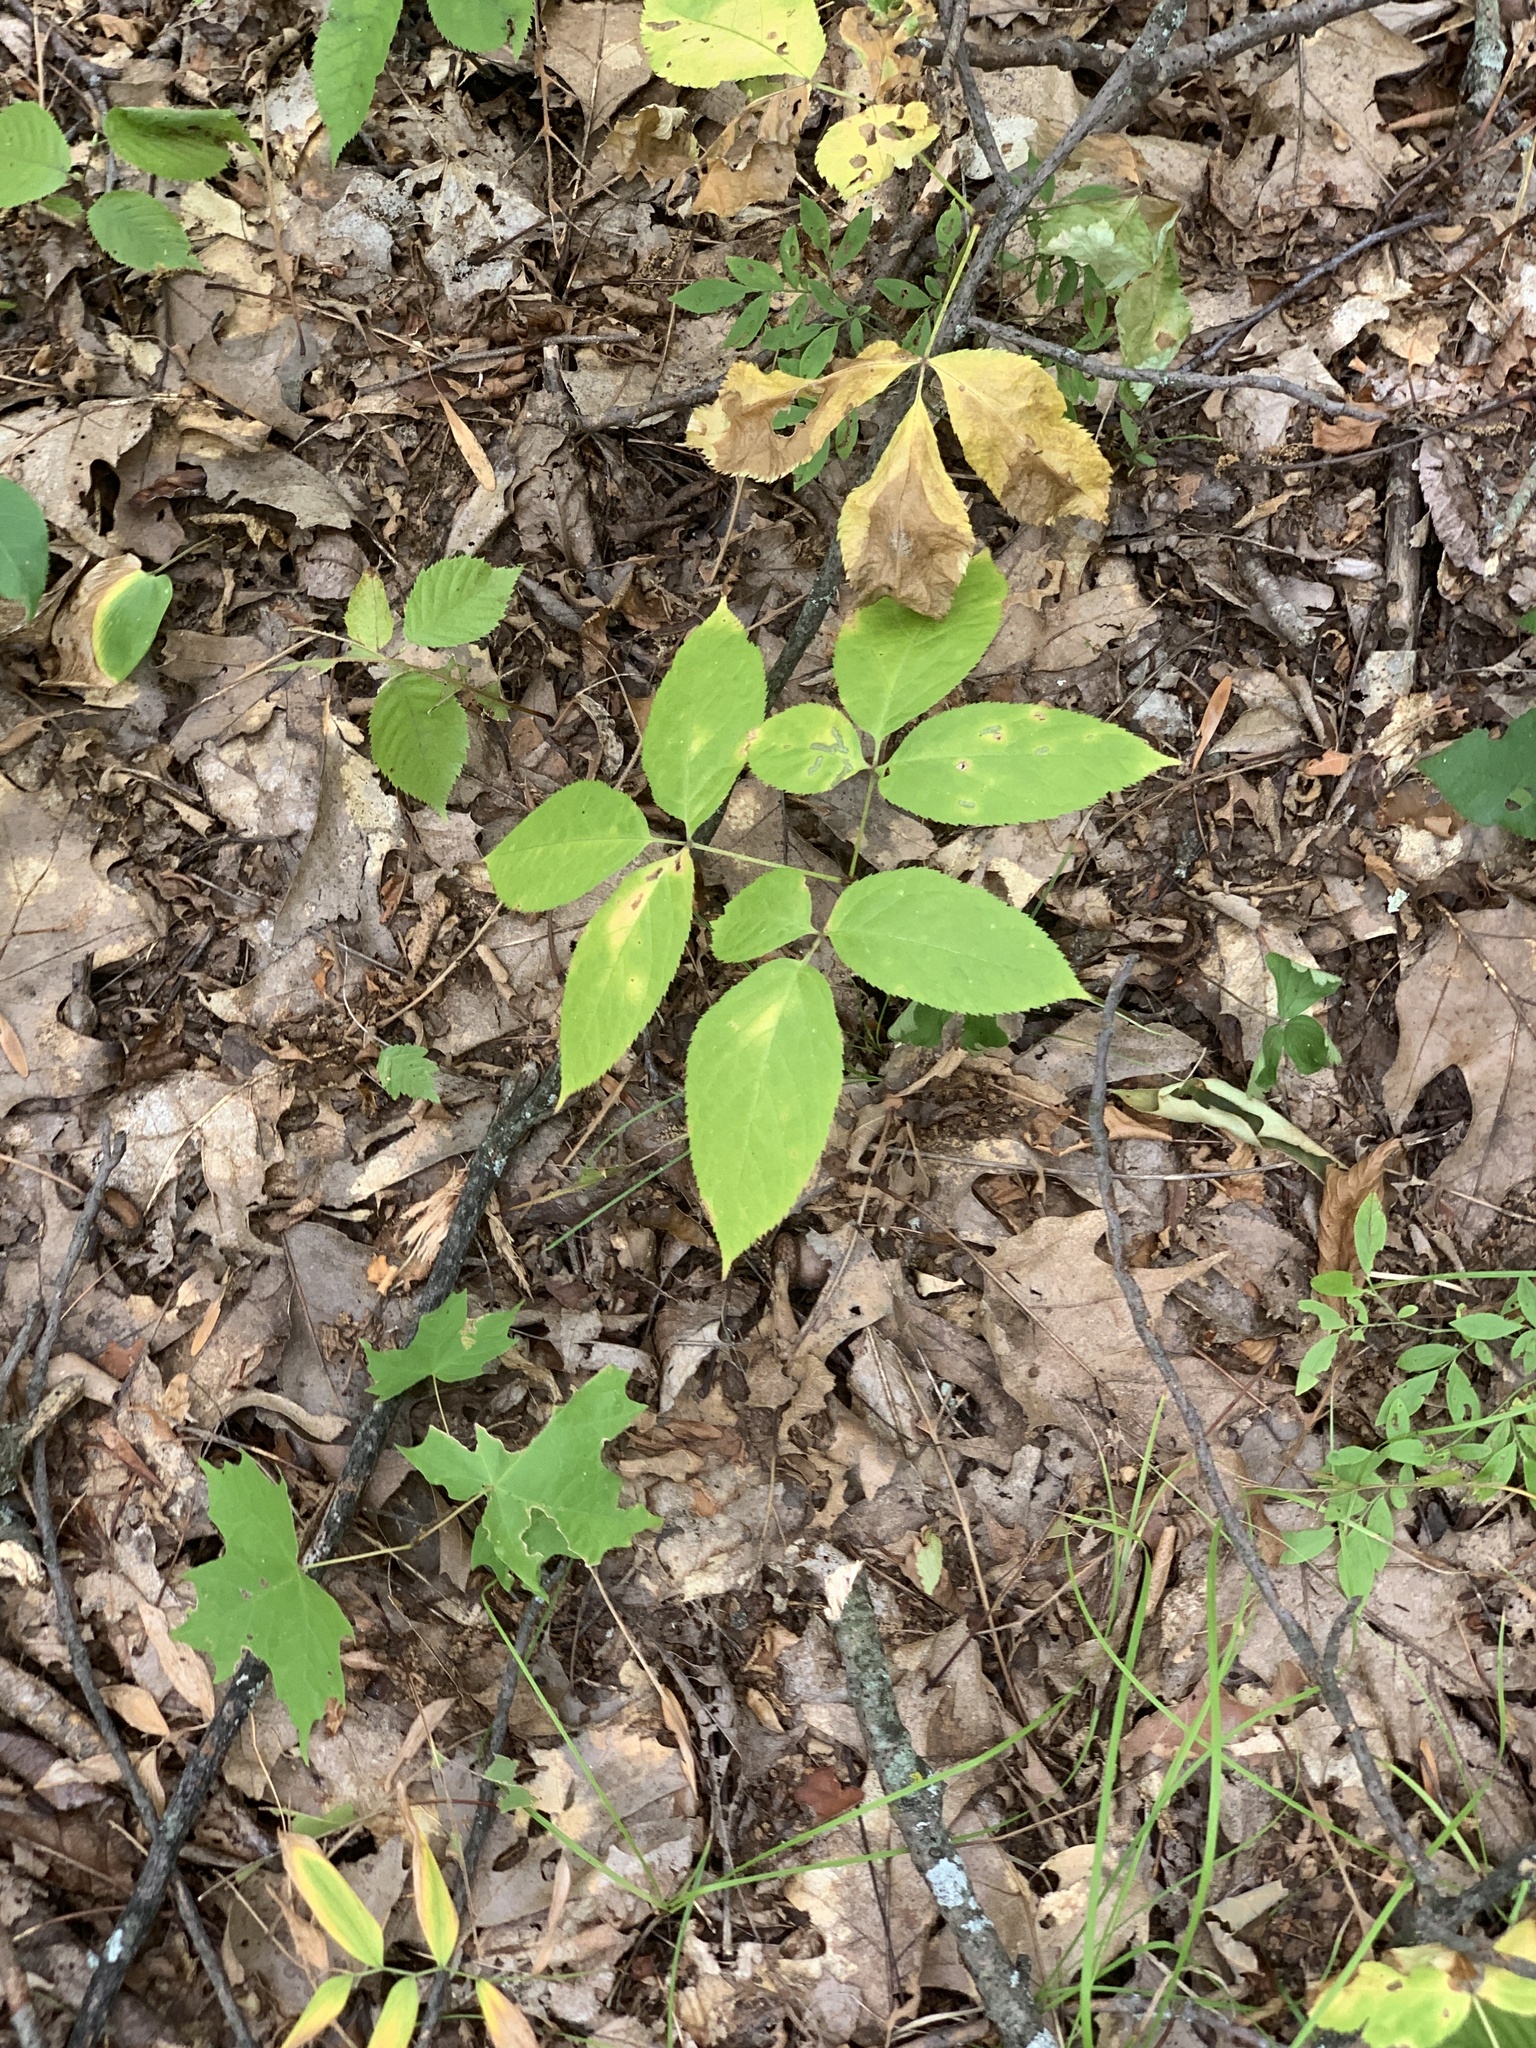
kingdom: Plantae
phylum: Tracheophyta
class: Magnoliopsida
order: Apiales
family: Araliaceae
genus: Aralia
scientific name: Aralia nudicaulis
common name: Wild sarsaparilla
